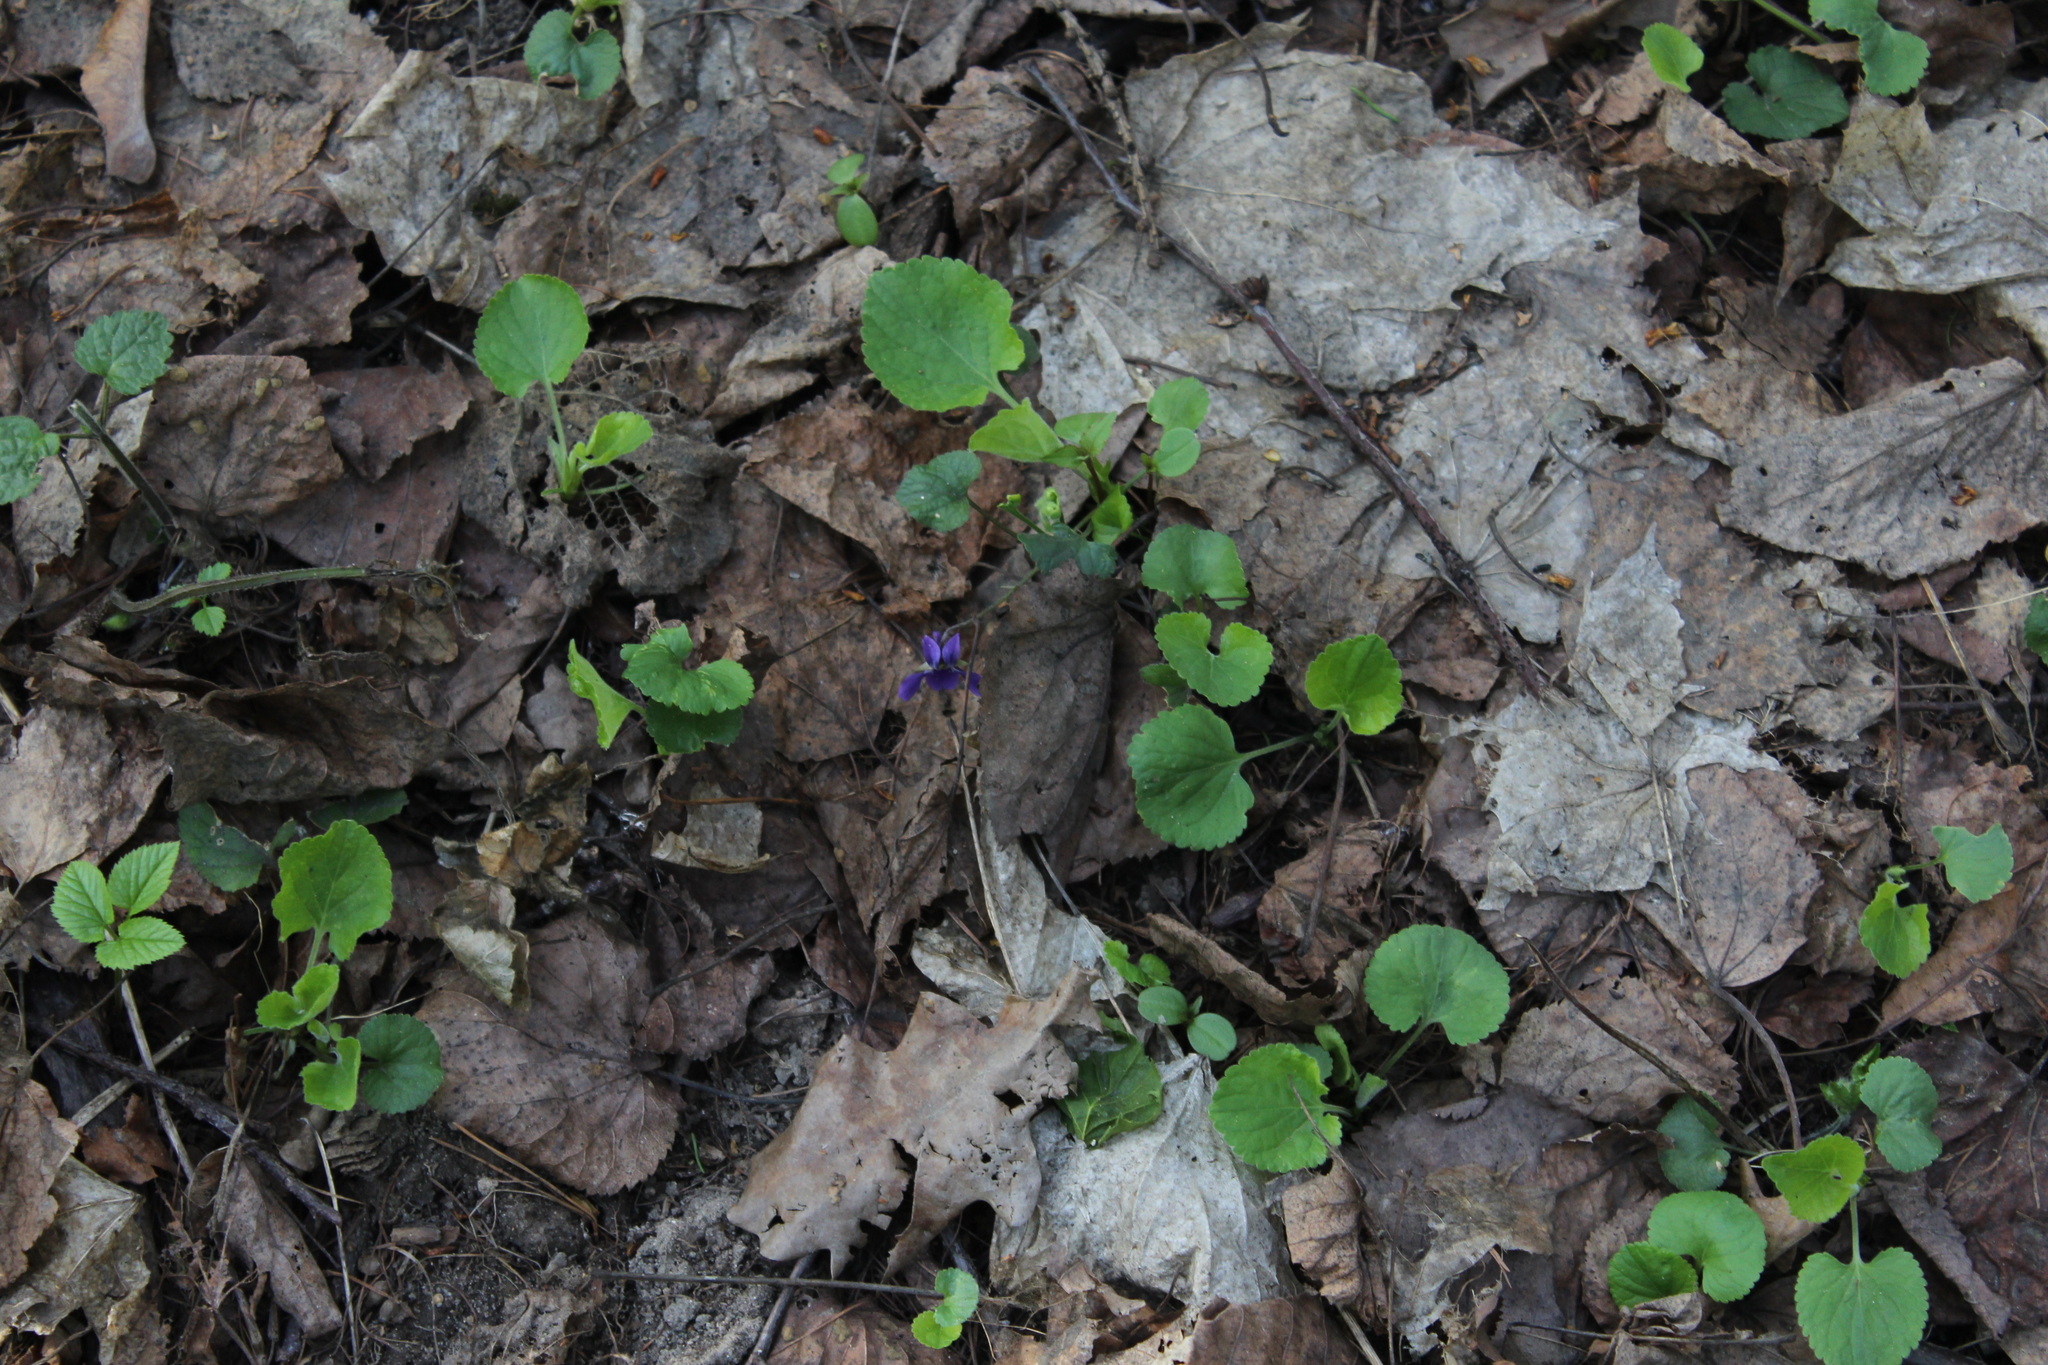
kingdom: Plantae
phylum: Tracheophyta
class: Magnoliopsida
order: Malpighiales
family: Violaceae
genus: Viola
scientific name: Viola odorata
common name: Sweet violet
